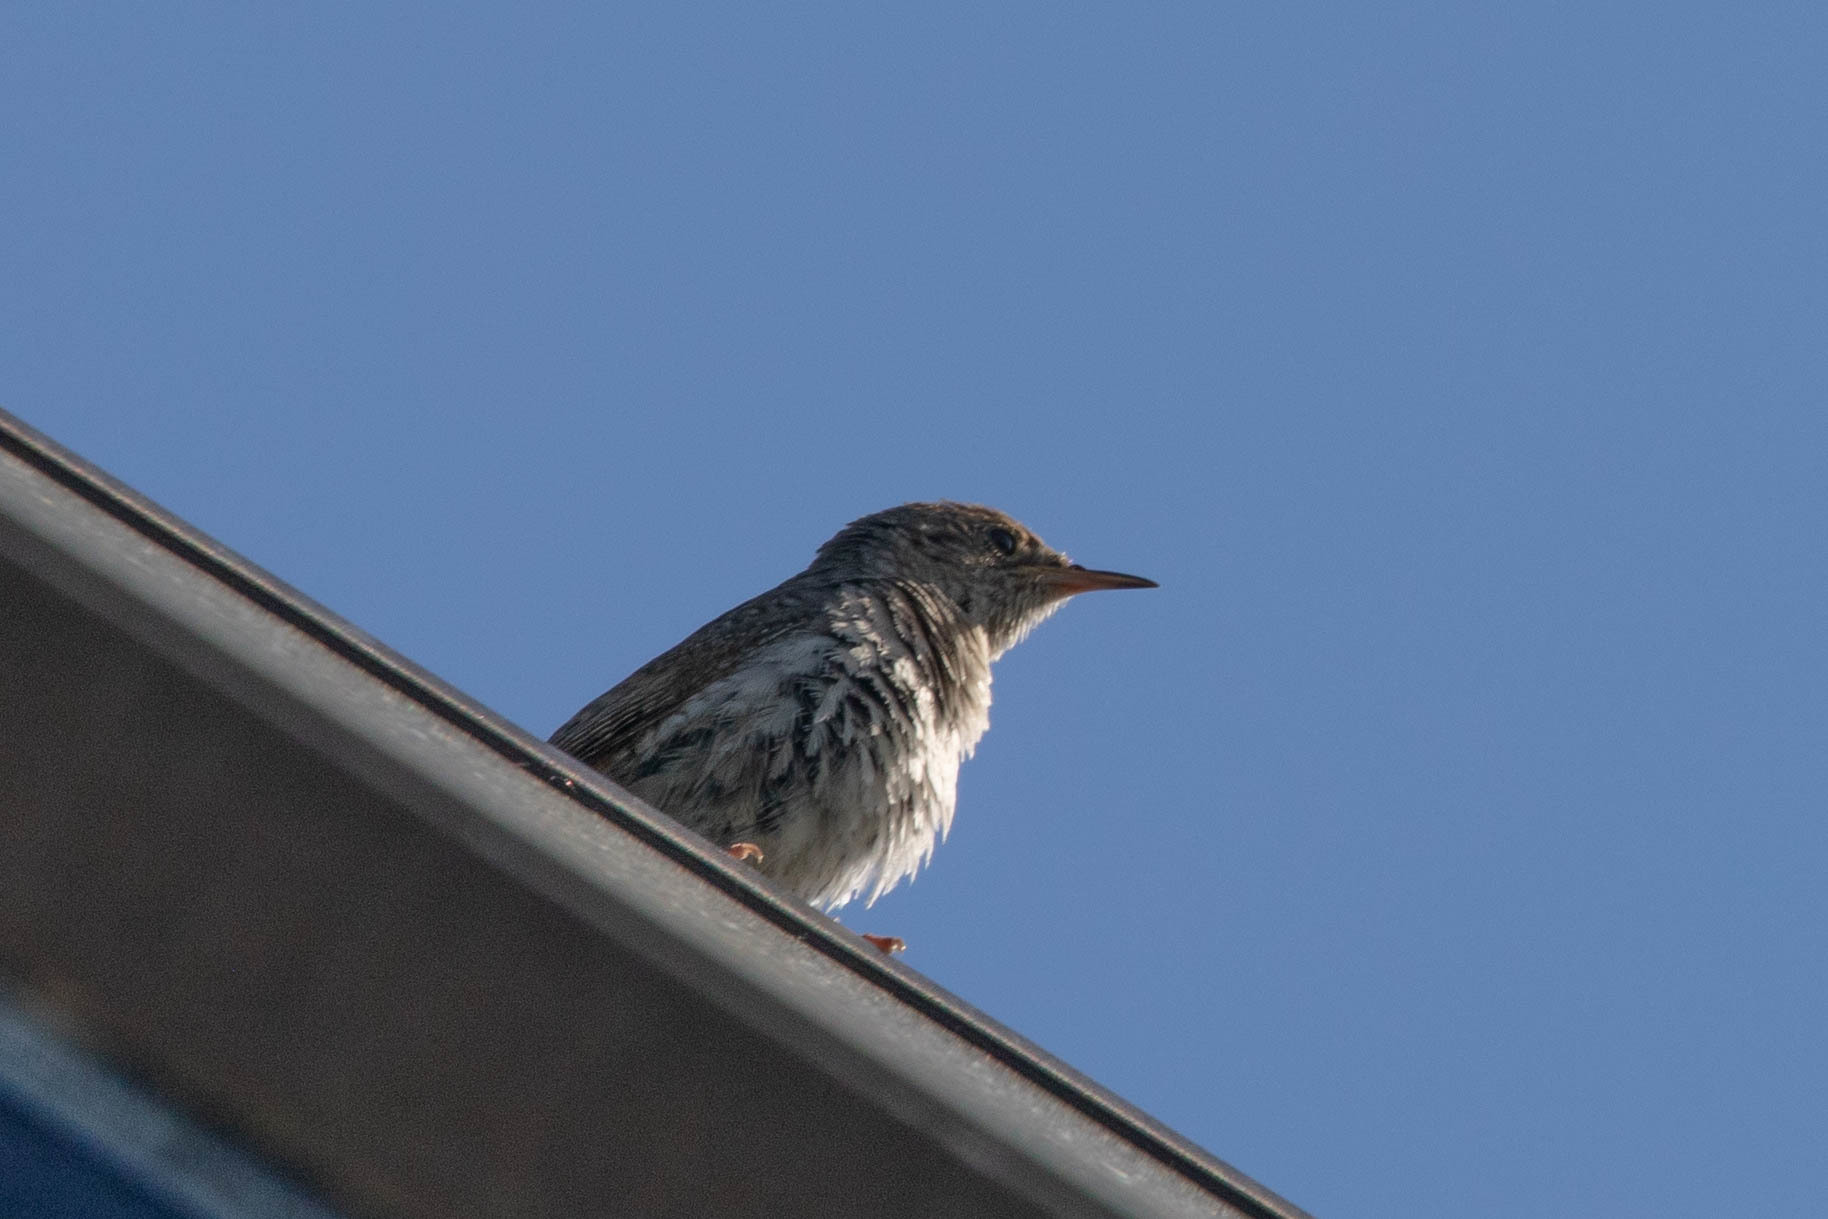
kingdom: Animalia
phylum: Chordata
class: Aves
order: Passeriformes
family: Troglodytidae
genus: Troglodytes
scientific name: Troglodytes aedon
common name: House wren
